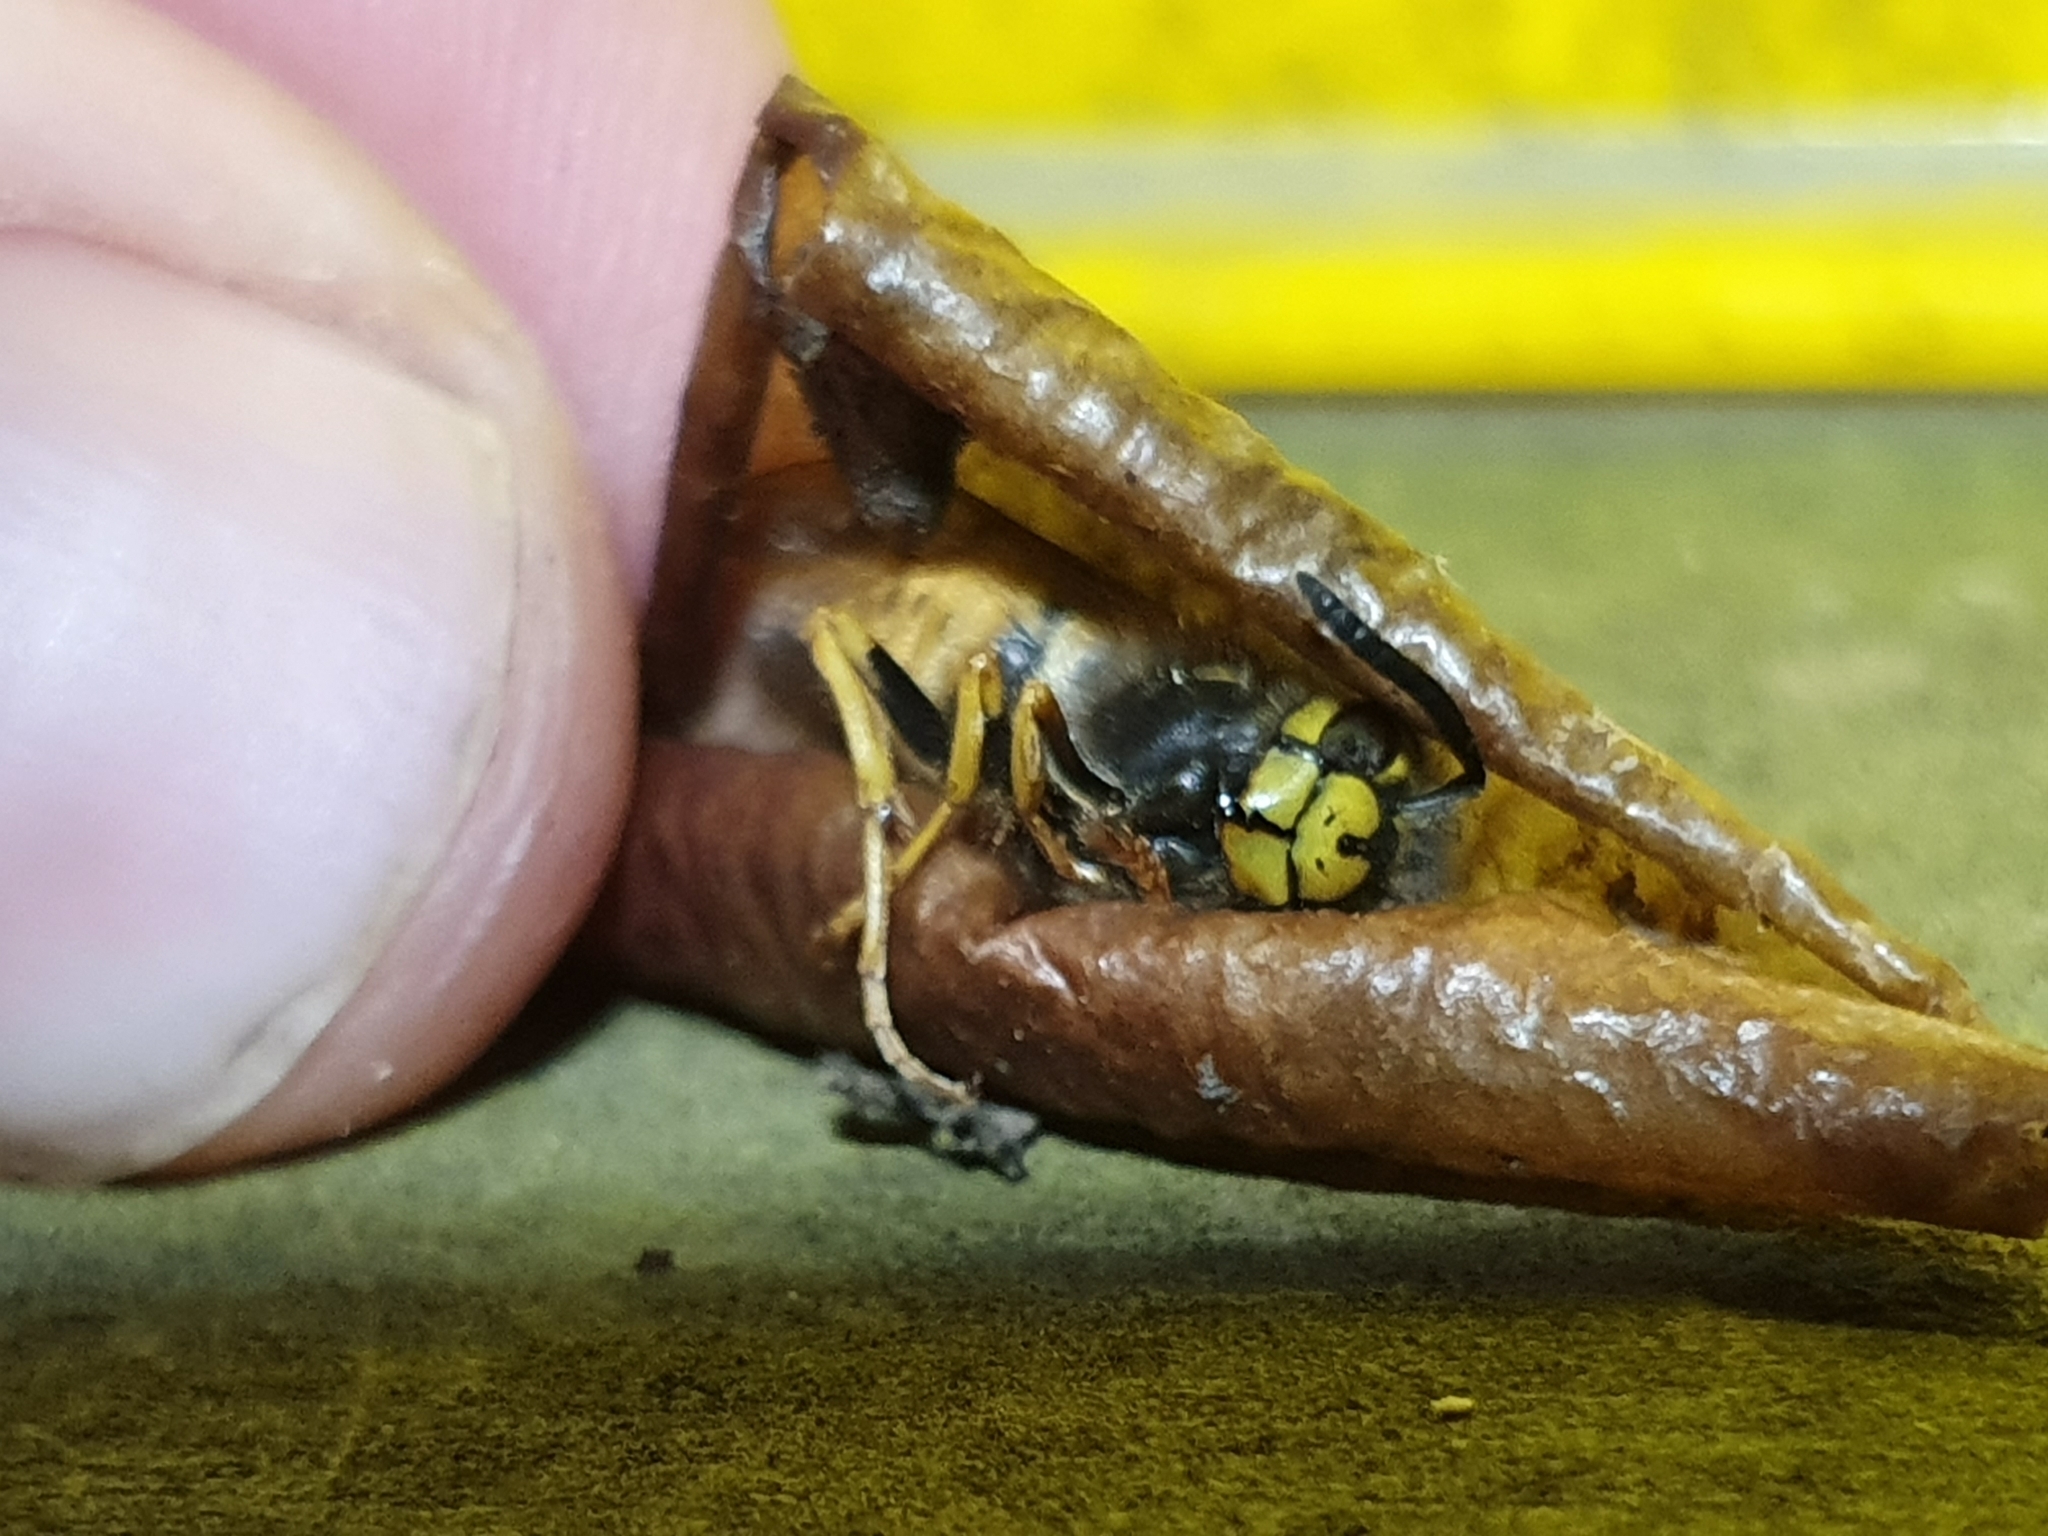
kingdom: Animalia
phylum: Arthropoda
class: Insecta
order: Hymenoptera
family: Vespidae
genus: Vespula
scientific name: Vespula germanica
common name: German wasp
